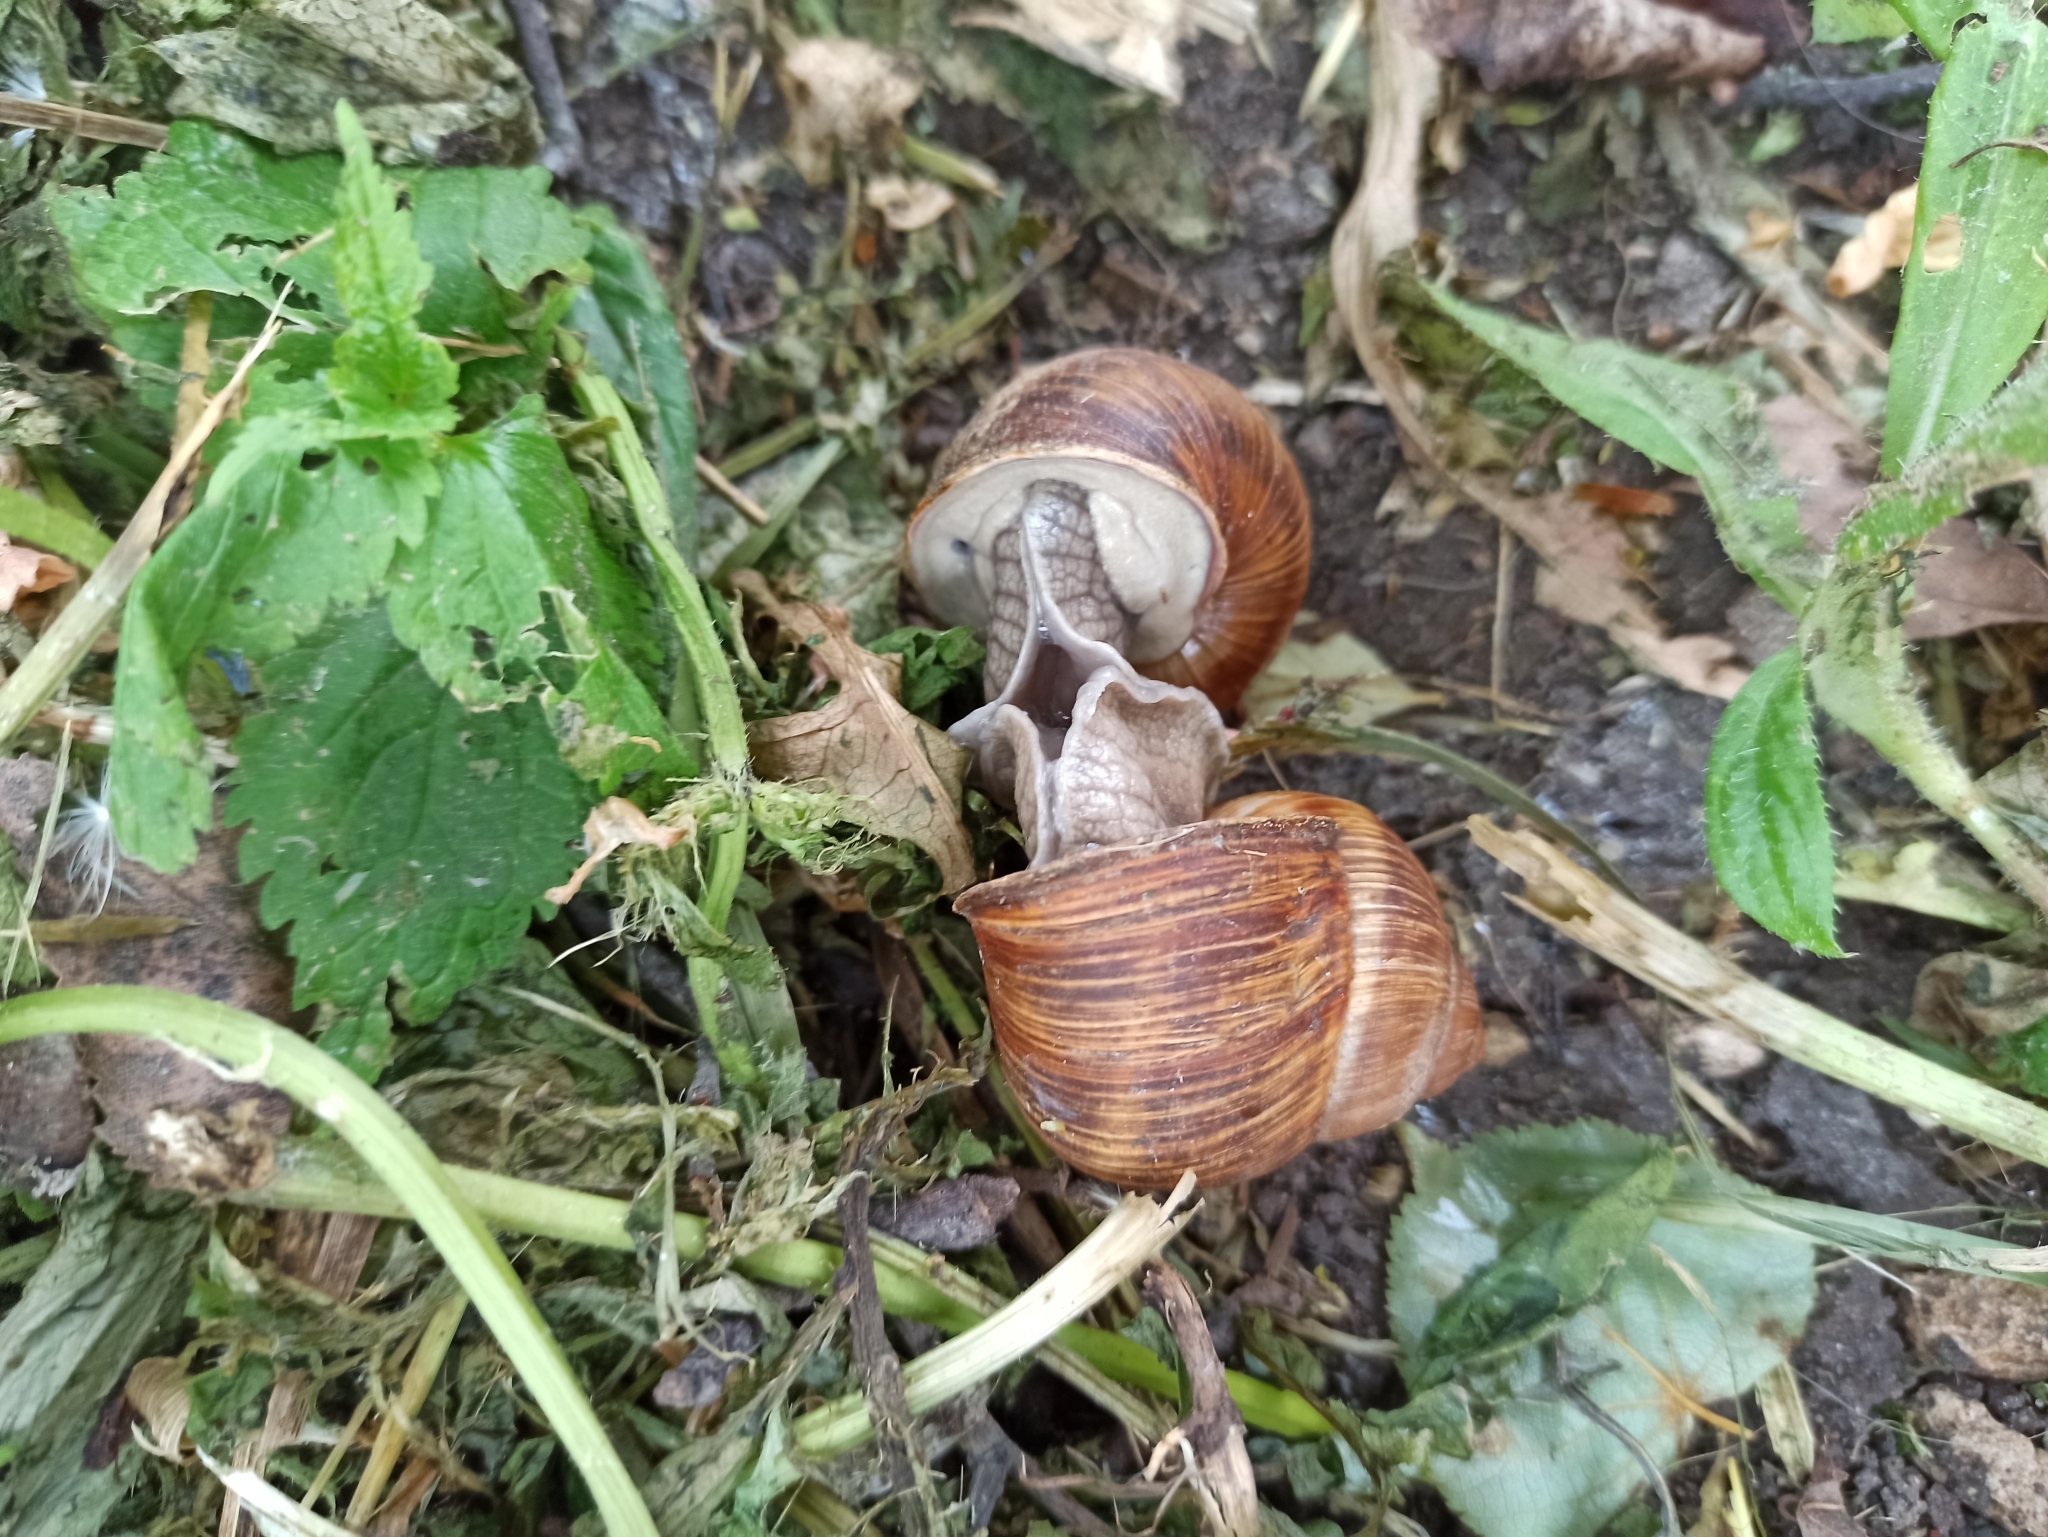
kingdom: Animalia
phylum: Mollusca
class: Gastropoda
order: Stylommatophora
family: Helicidae
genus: Helix
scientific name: Helix pomatia
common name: Roman snail
